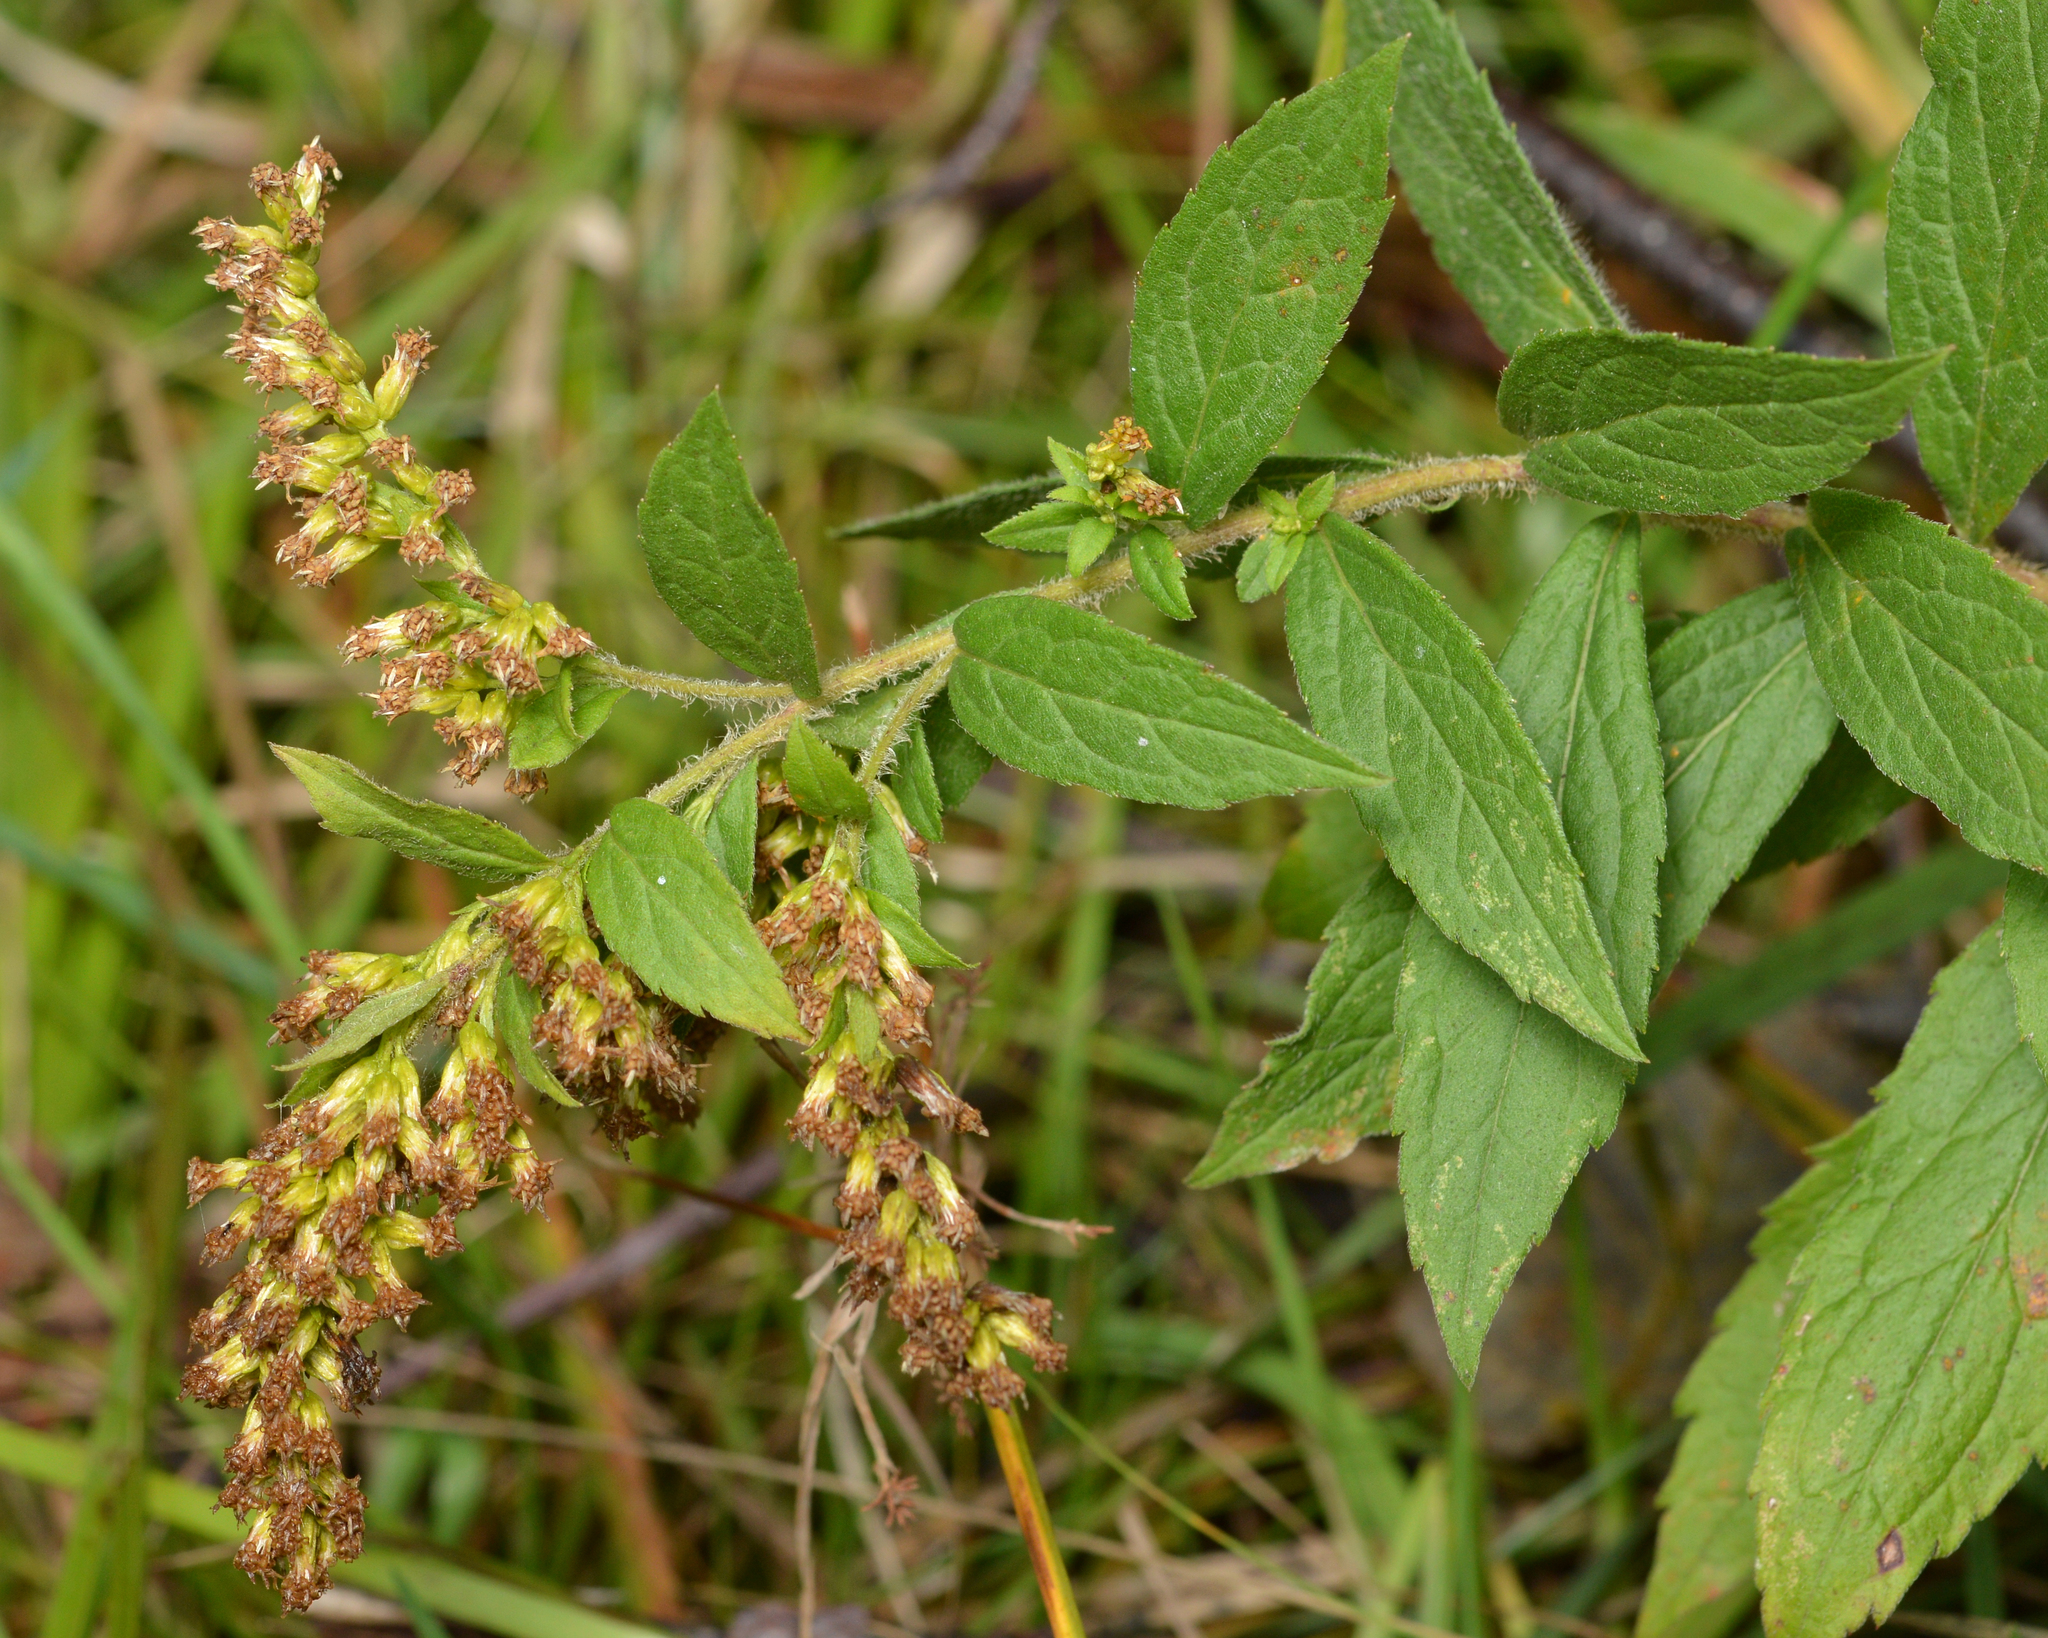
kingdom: Plantae
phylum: Tracheophyta
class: Magnoliopsida
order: Asterales
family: Asteraceae
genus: Solidago
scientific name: Solidago rugosa
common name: Rough-stemmed goldenrod
